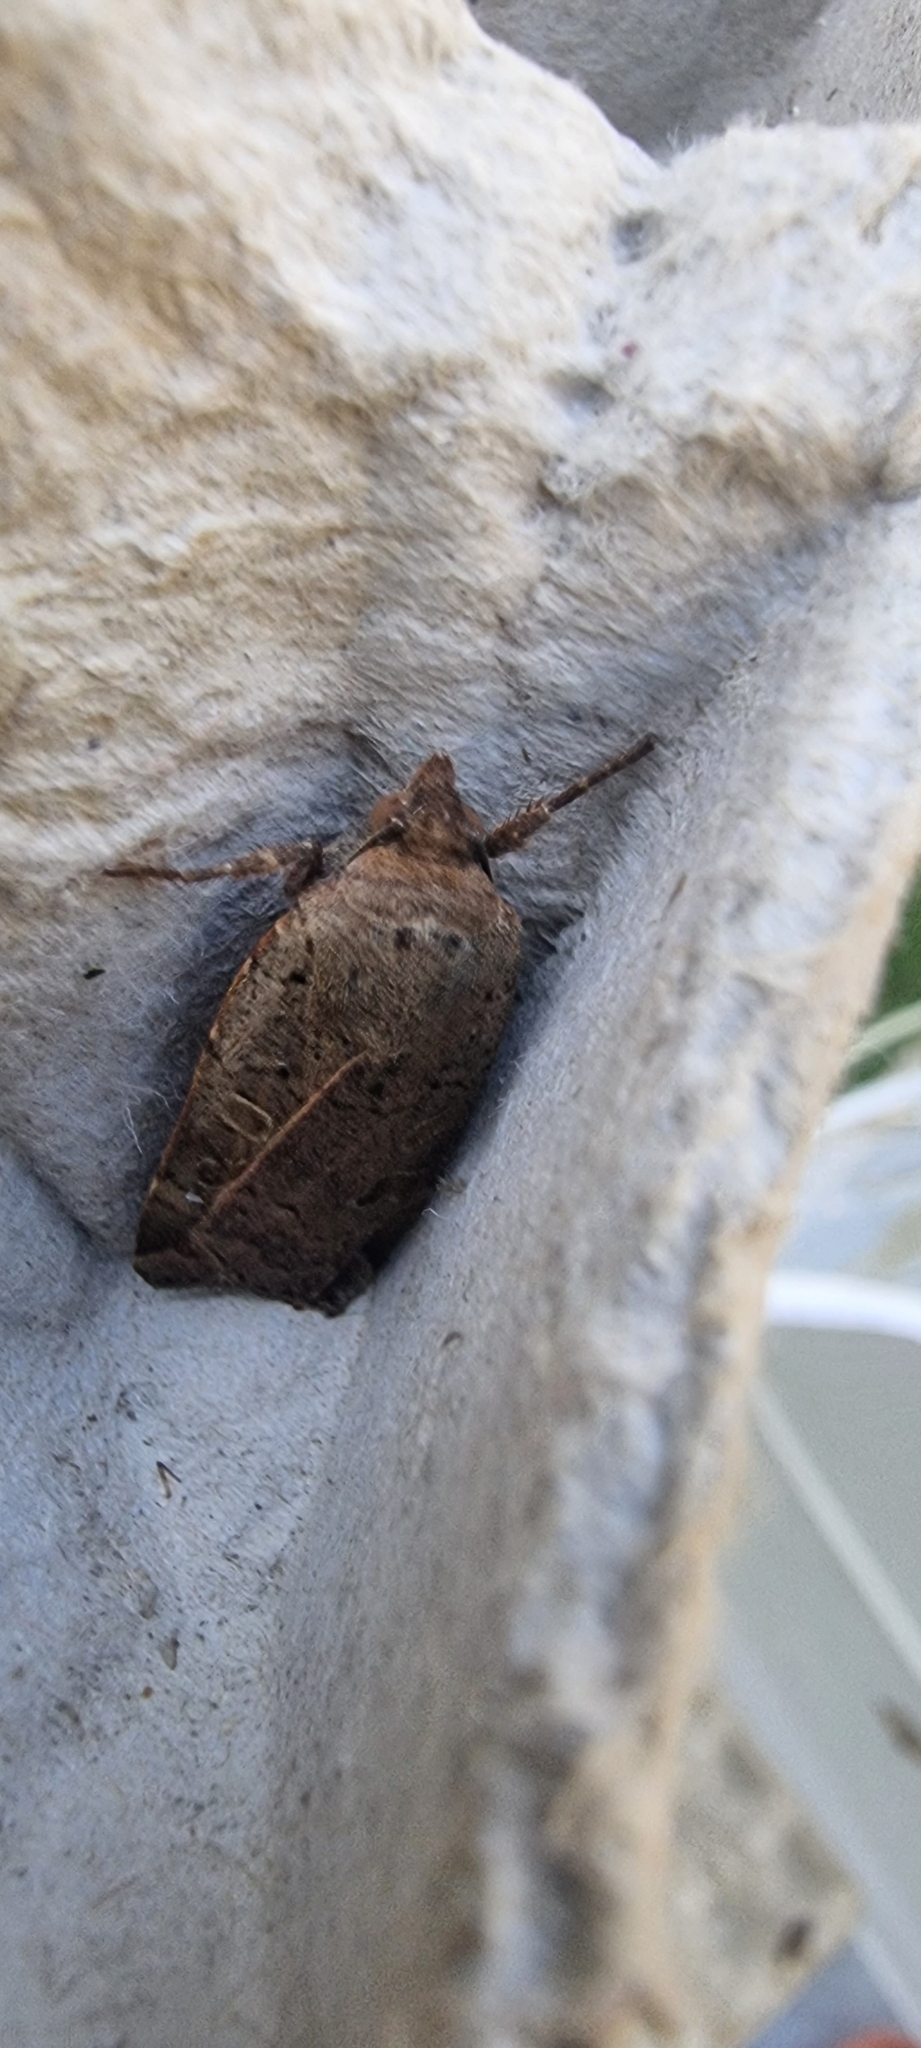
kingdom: Animalia
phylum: Arthropoda
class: Insecta
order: Lepidoptera
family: Noctuidae
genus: Noctua
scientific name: Noctua comes
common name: Lesser yellow underwing
